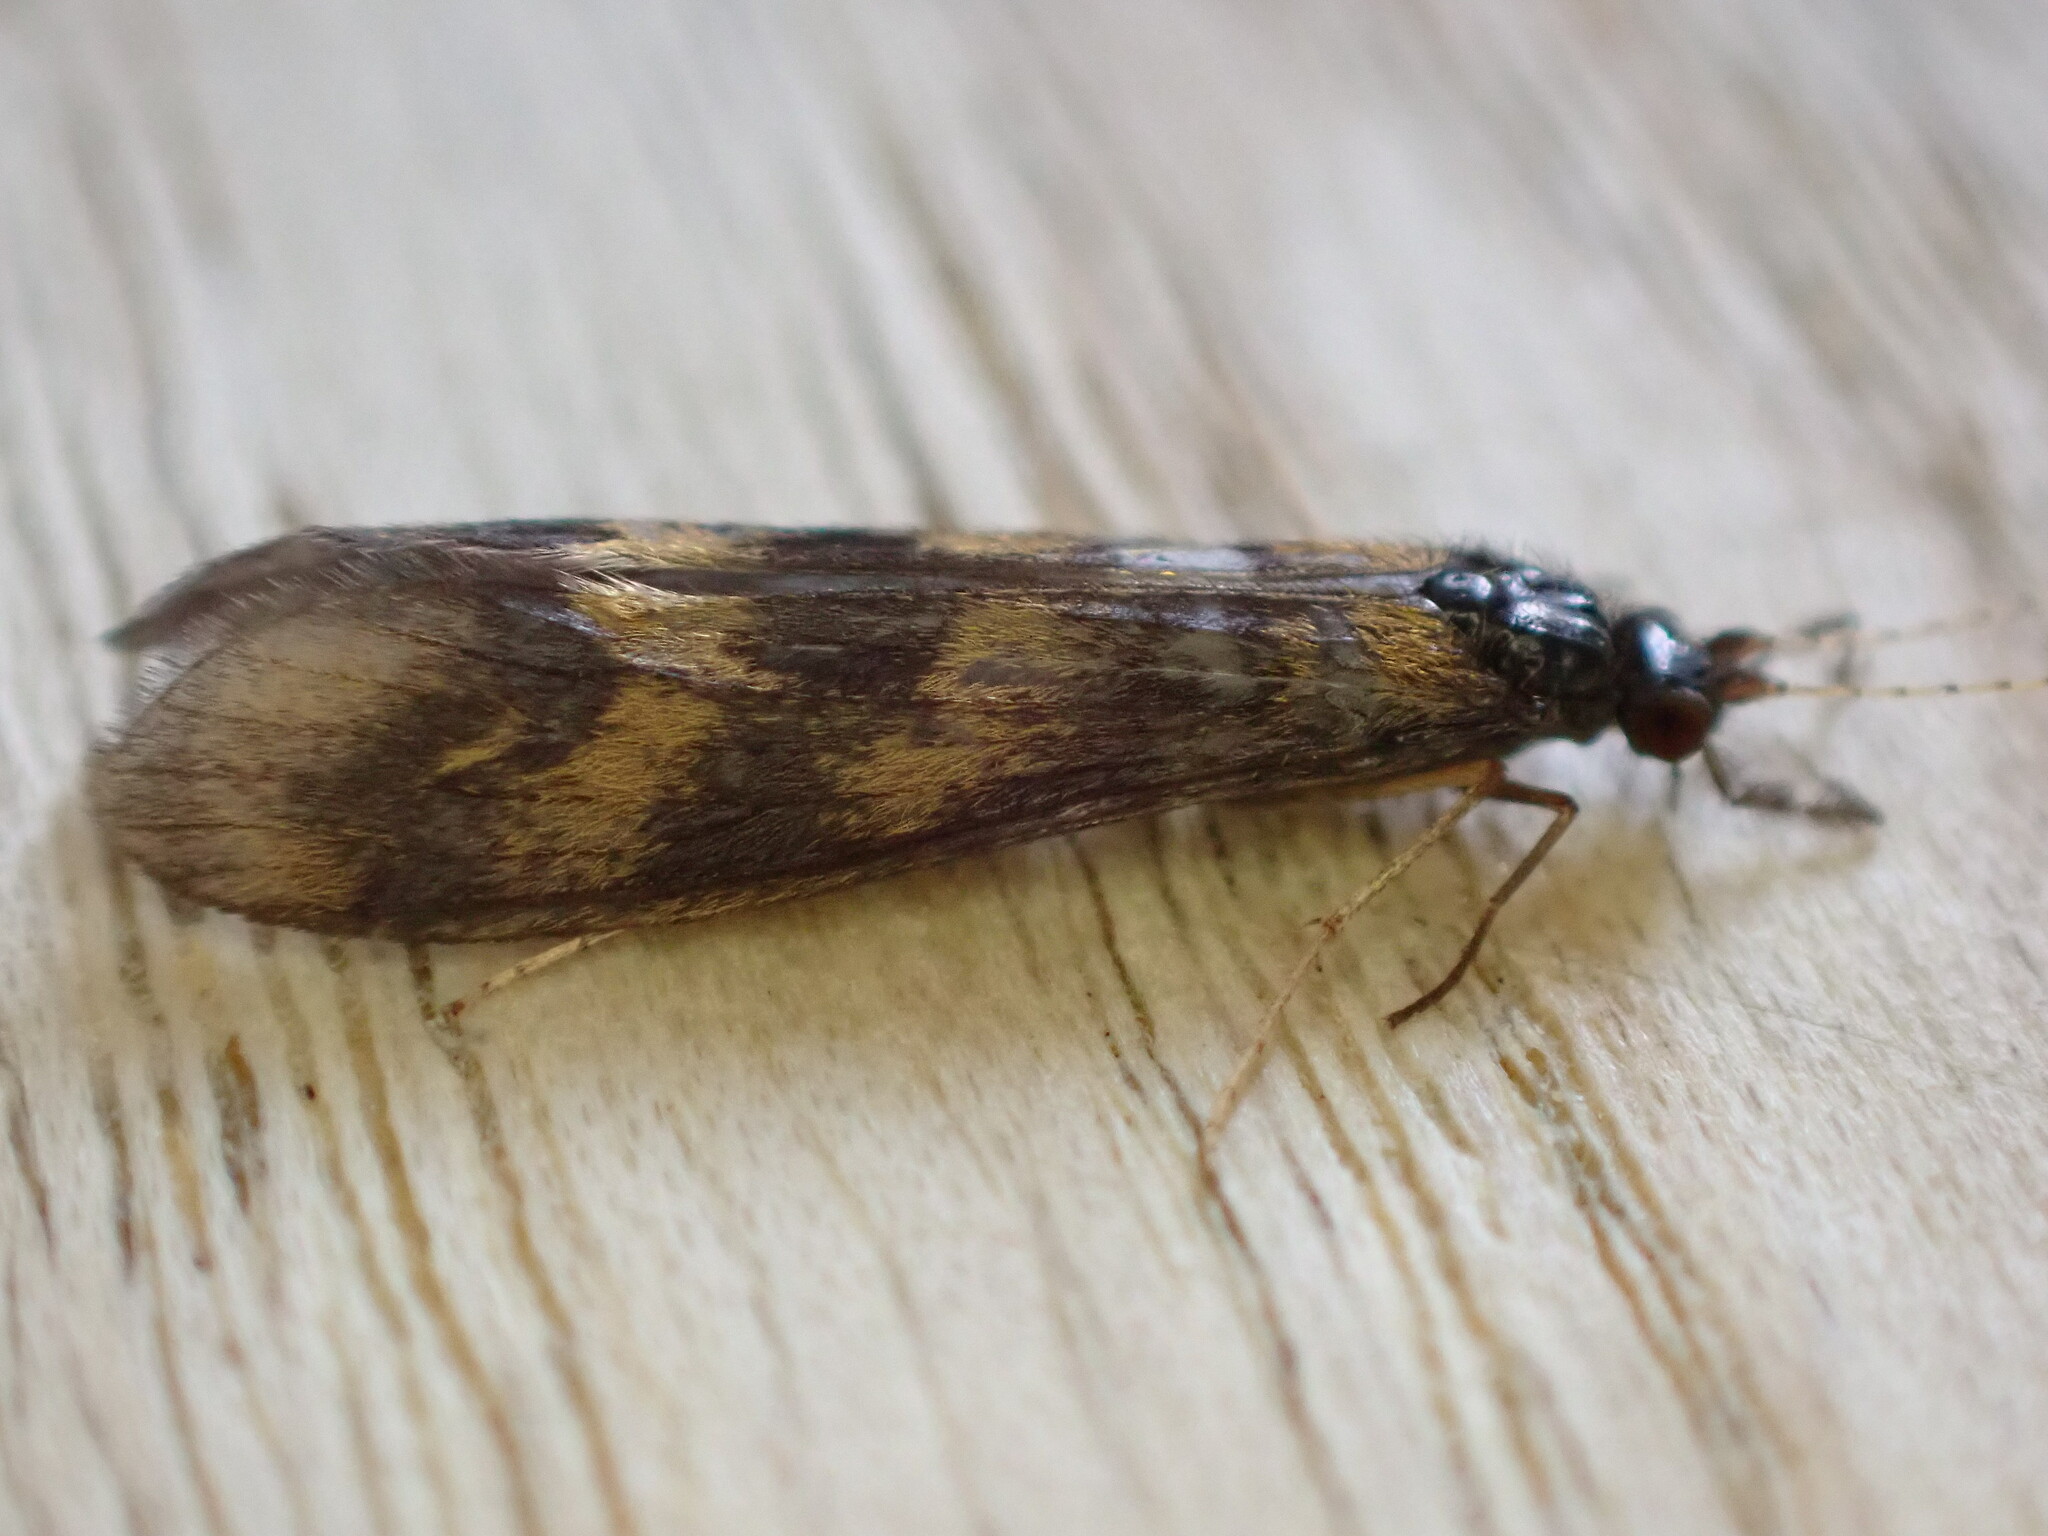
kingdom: Animalia
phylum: Arthropoda
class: Insecta
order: Trichoptera
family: Leptoceridae
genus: Mystacides
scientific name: Mystacides longicornis
